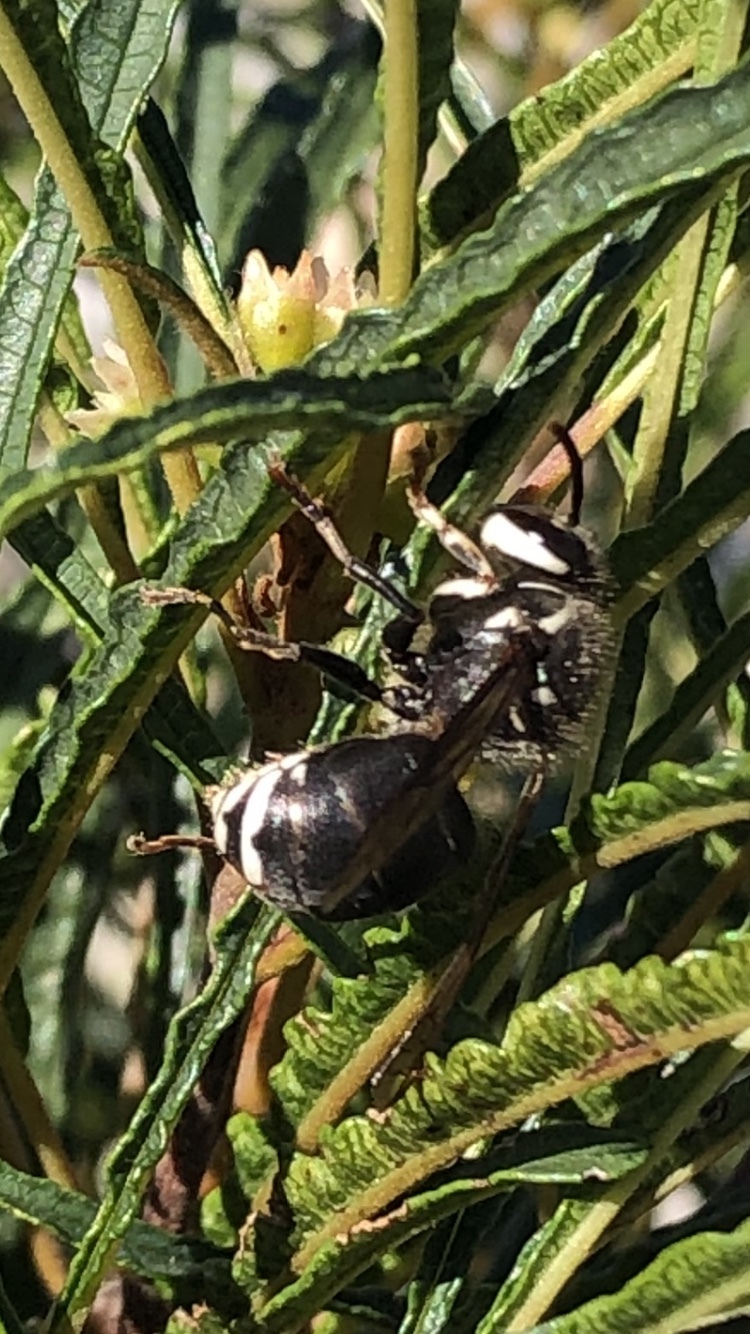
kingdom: Animalia
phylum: Arthropoda
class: Insecta
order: Hymenoptera
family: Vespidae
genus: Dolichovespula
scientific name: Dolichovespula maculata
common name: Bald-faced hornet
